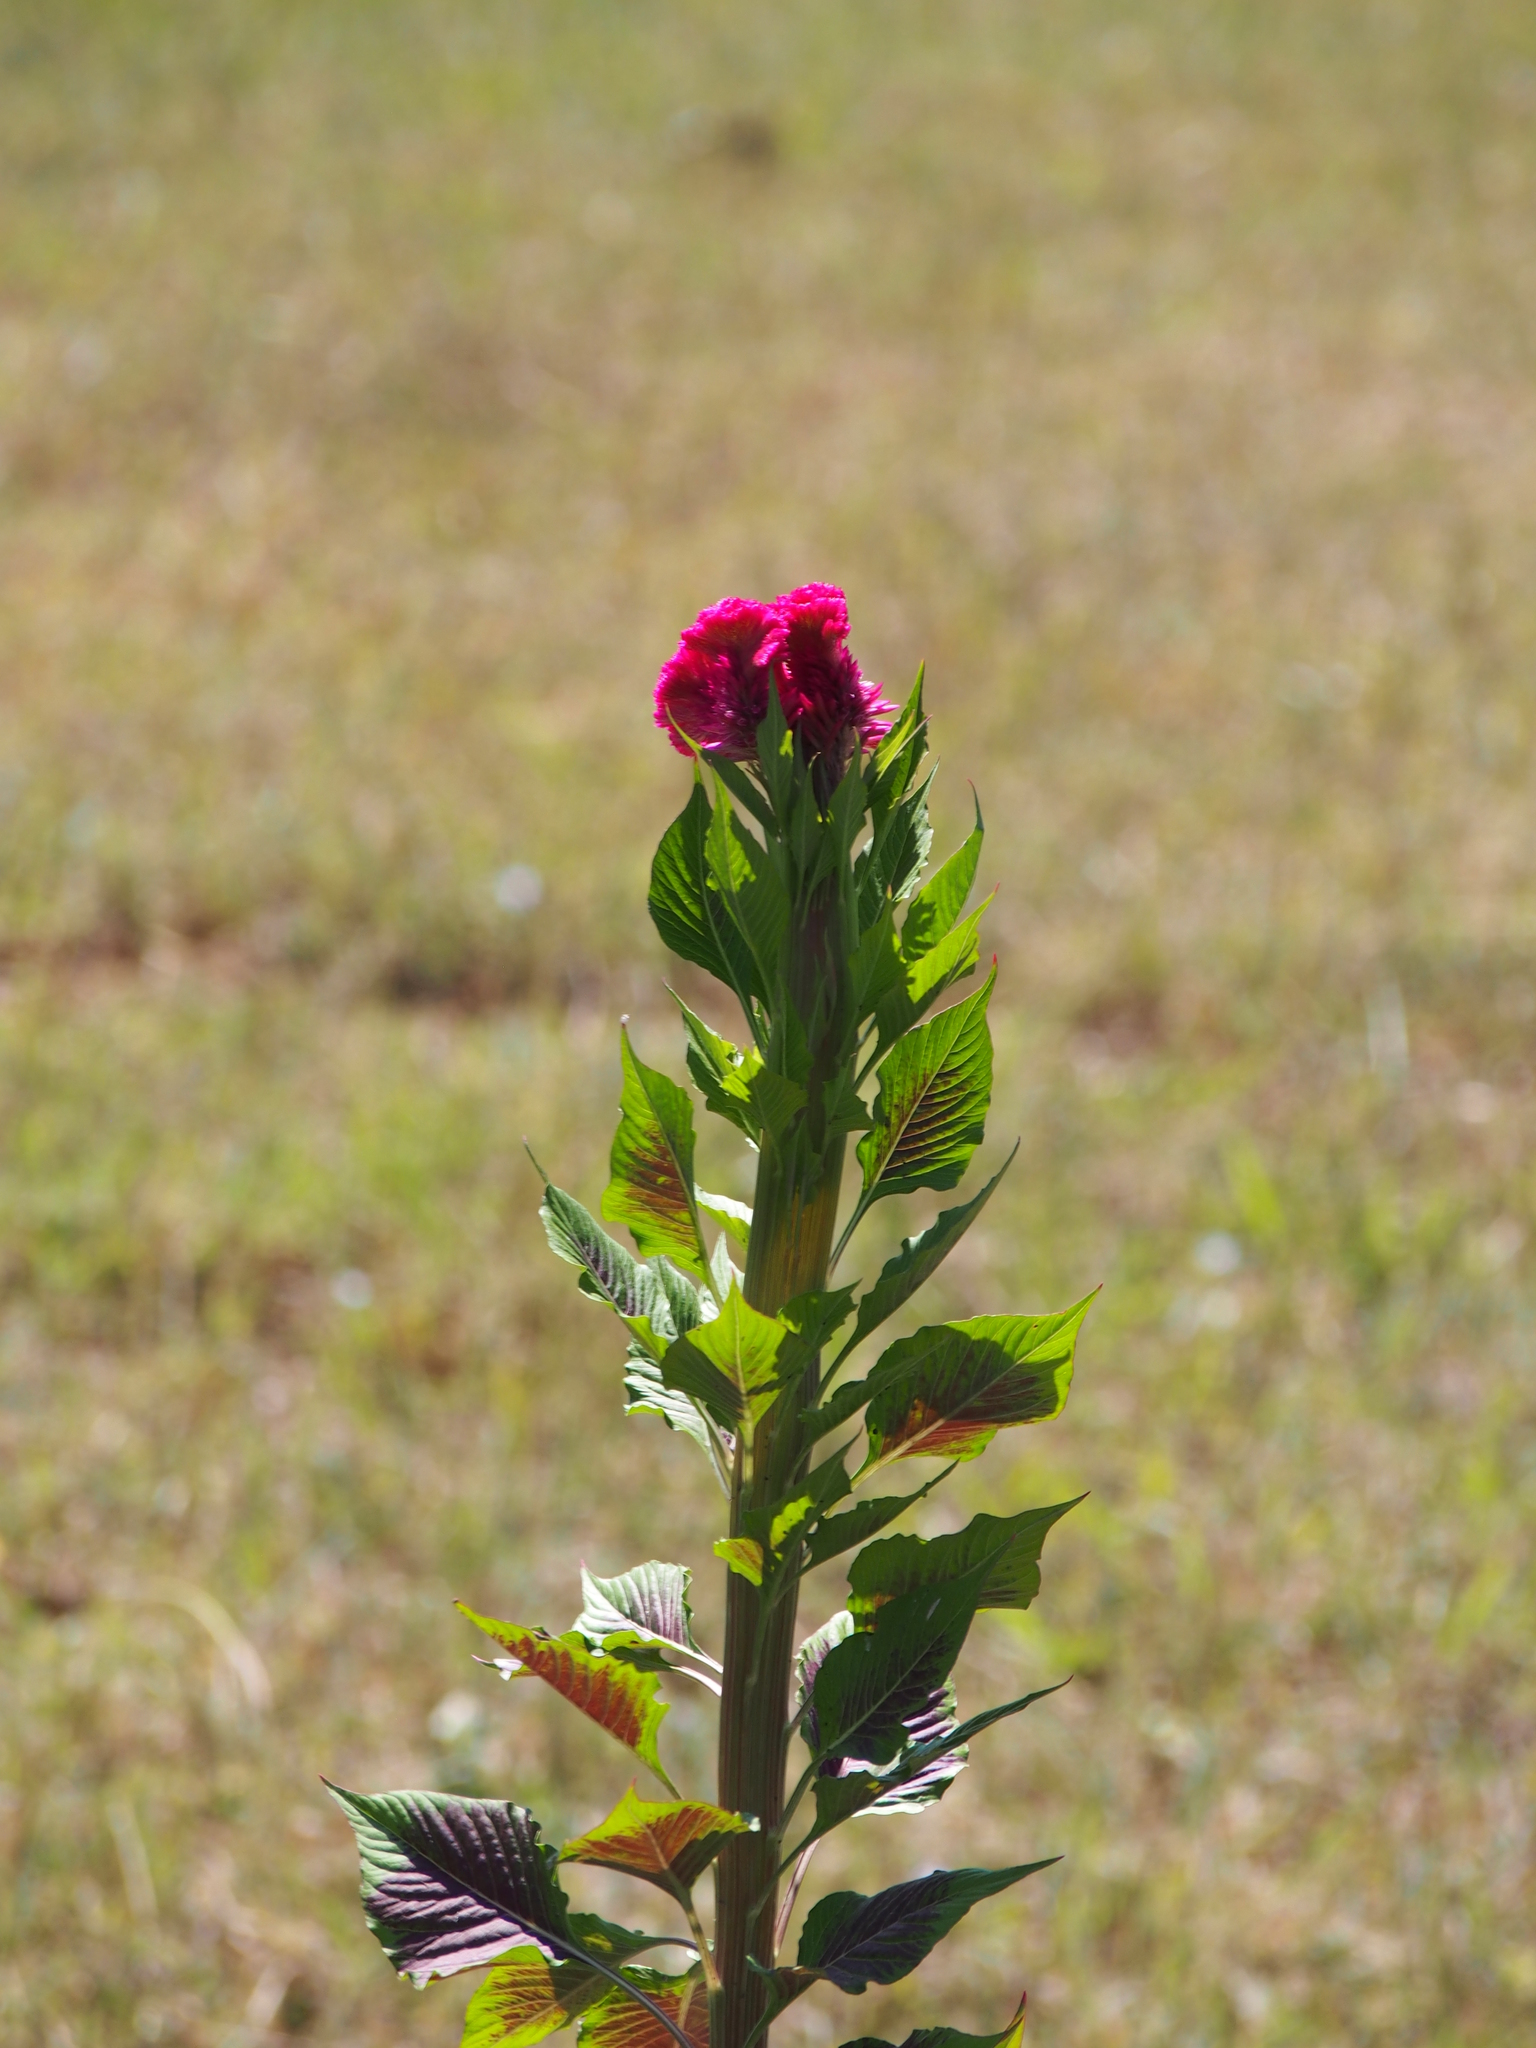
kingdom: Plantae
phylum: Tracheophyta
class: Magnoliopsida
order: Caryophyllales
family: Amaranthaceae
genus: Celosia
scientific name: Celosia argentea
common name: Feather cockscomb
